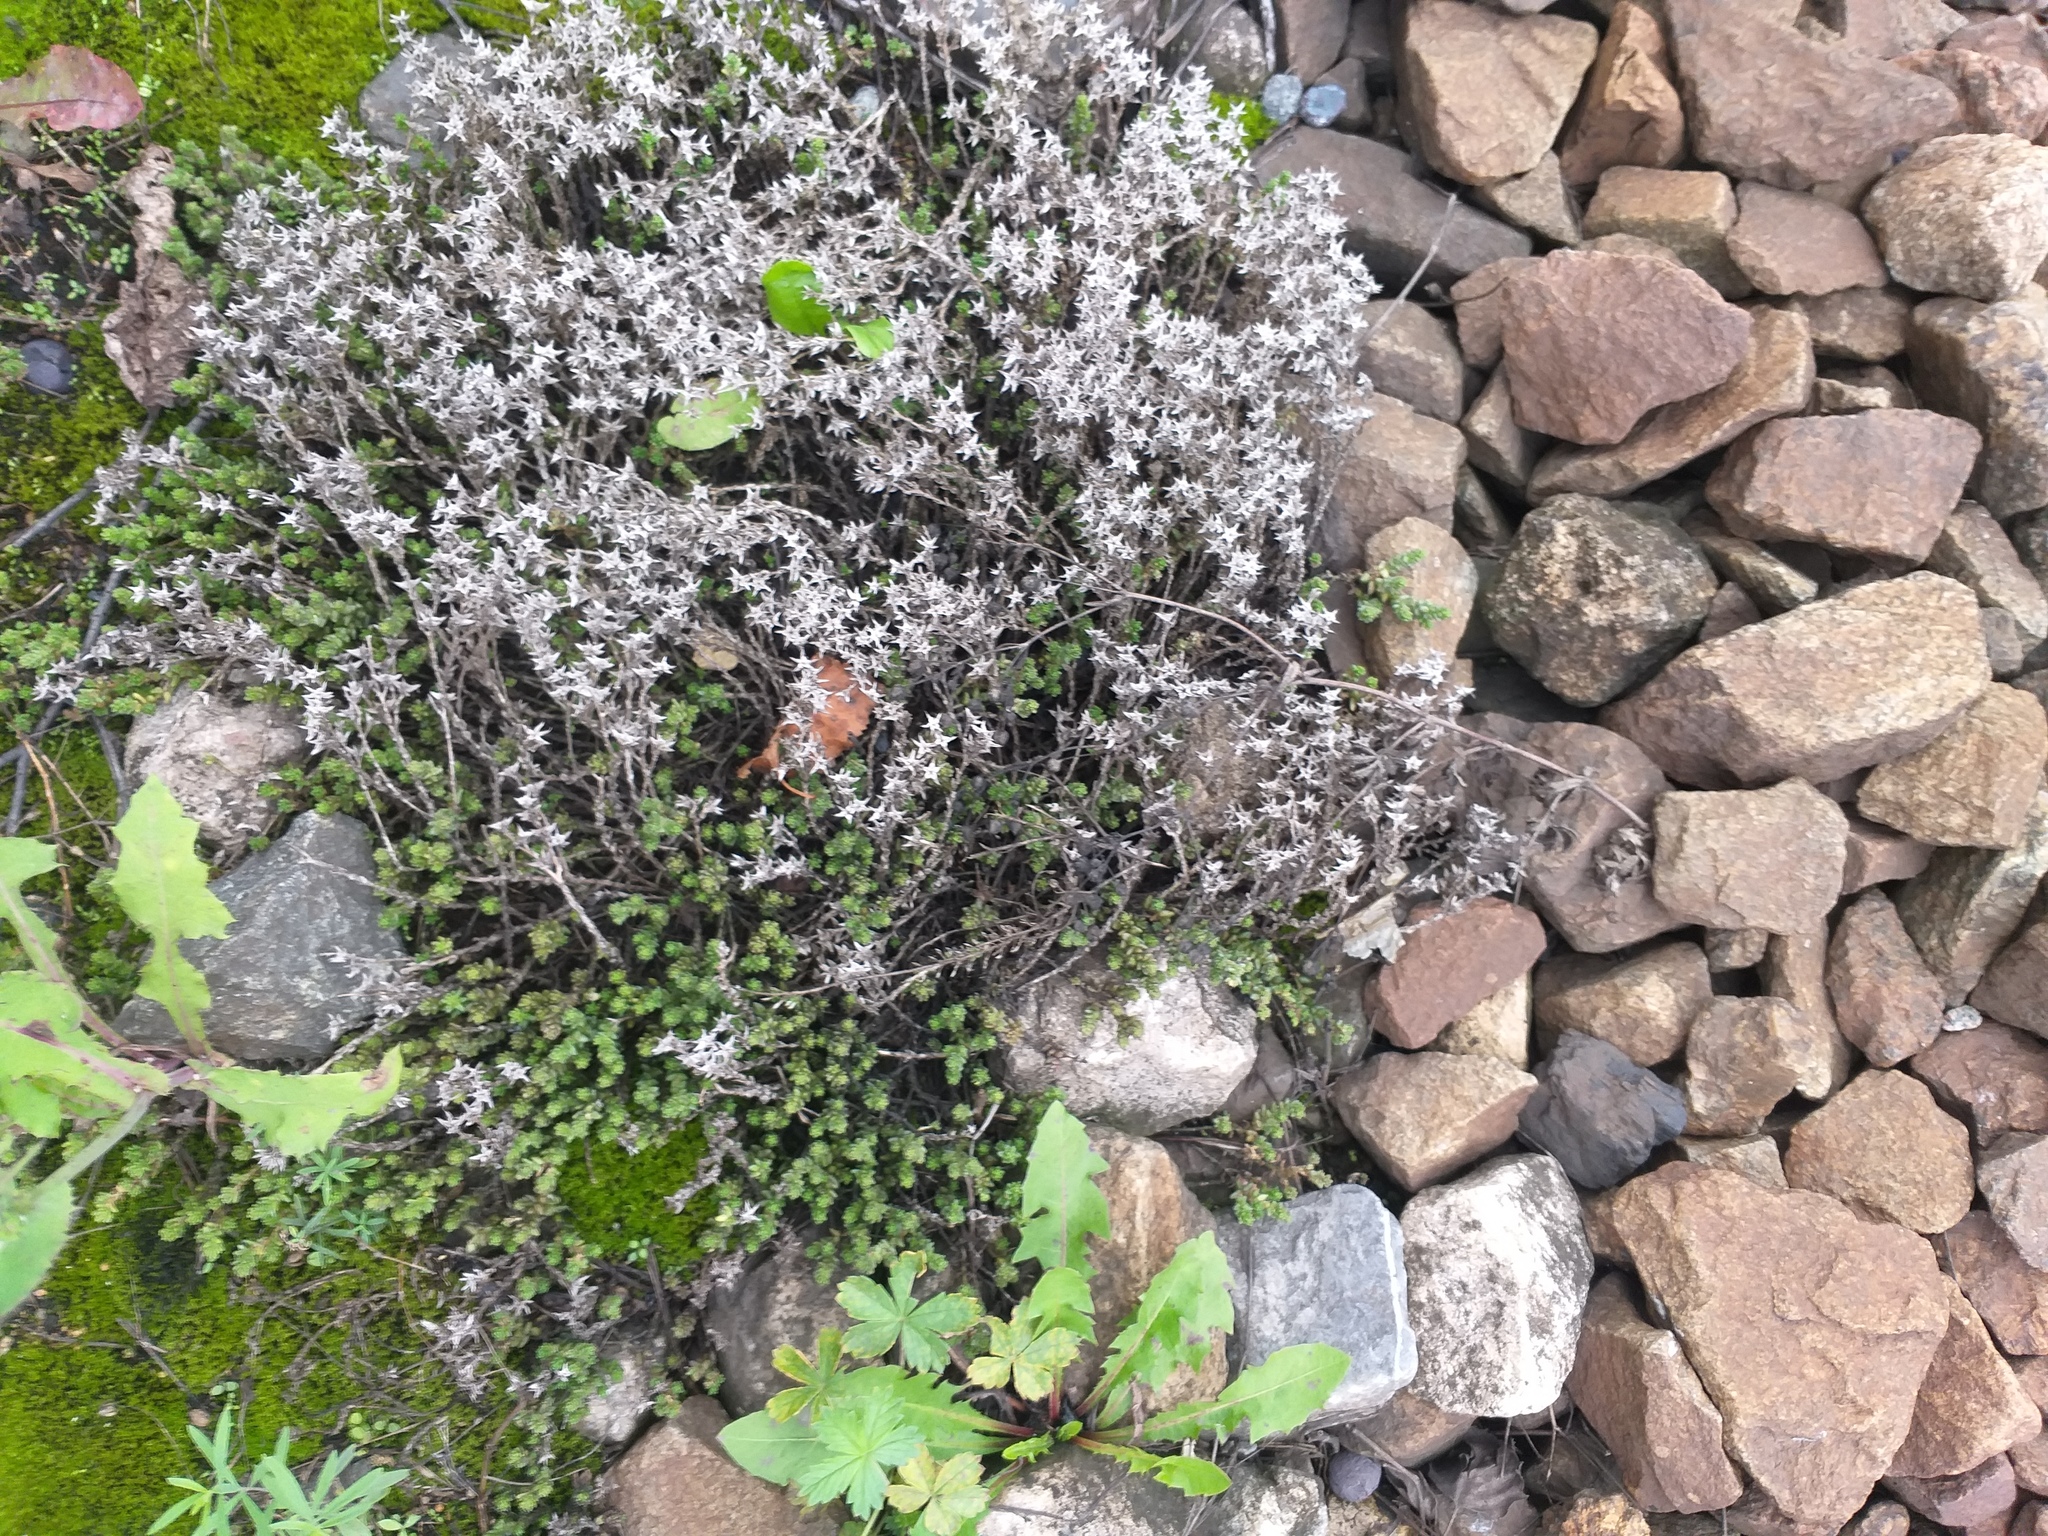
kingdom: Plantae
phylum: Tracheophyta
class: Magnoliopsida
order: Saxifragales
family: Crassulaceae
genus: Sedum
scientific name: Sedum acre
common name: Biting stonecrop
